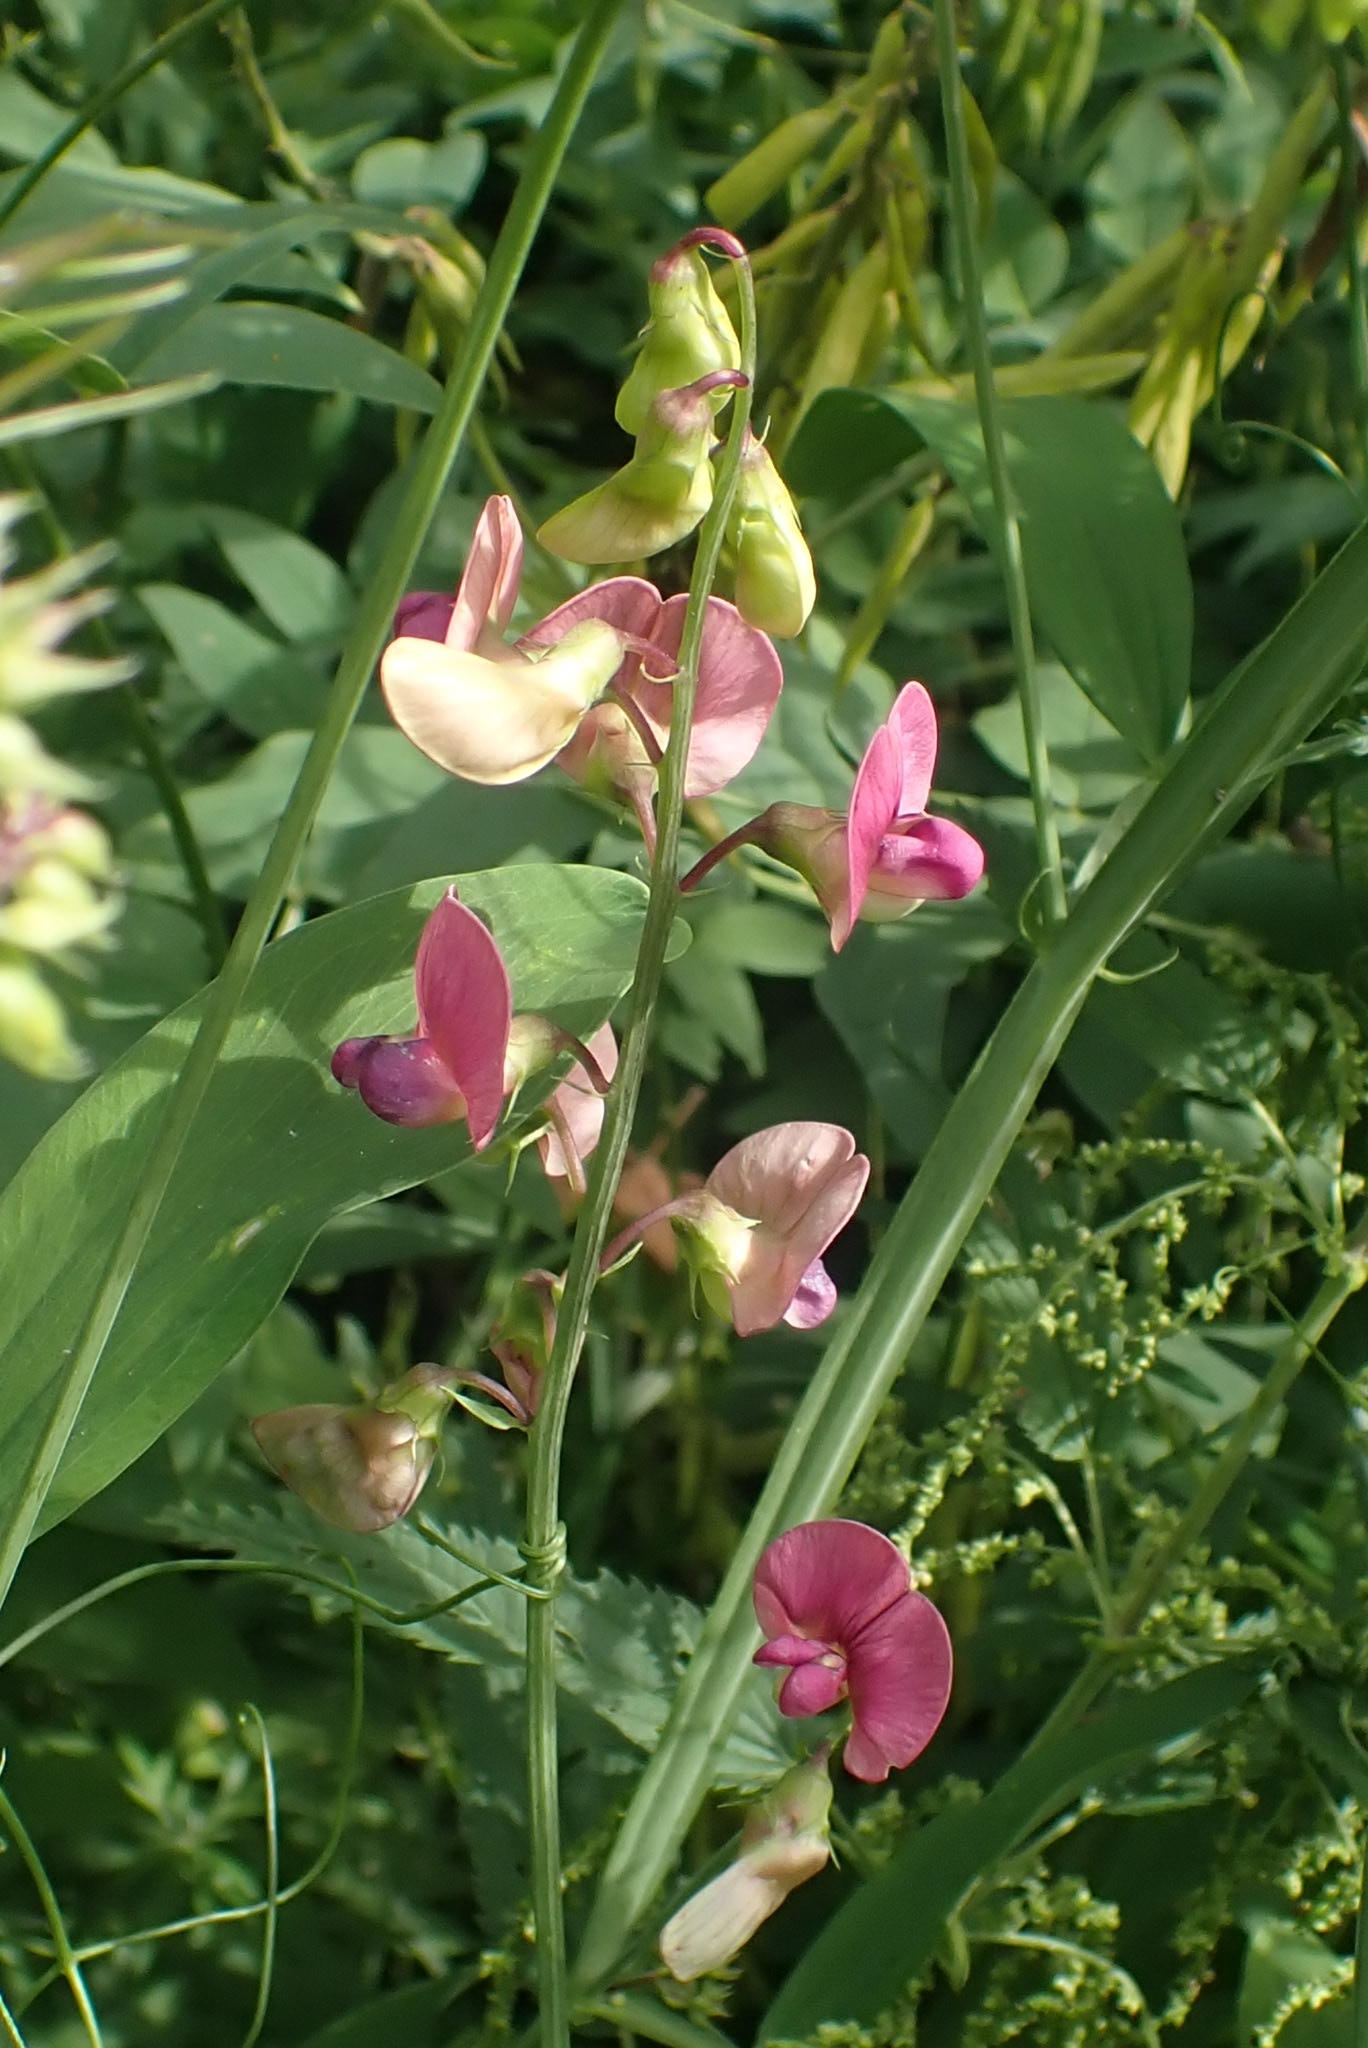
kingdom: Plantae
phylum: Tracheophyta
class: Magnoliopsida
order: Fabales
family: Fabaceae
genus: Lathyrus
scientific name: Lathyrus sylvestris
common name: Flat pea
